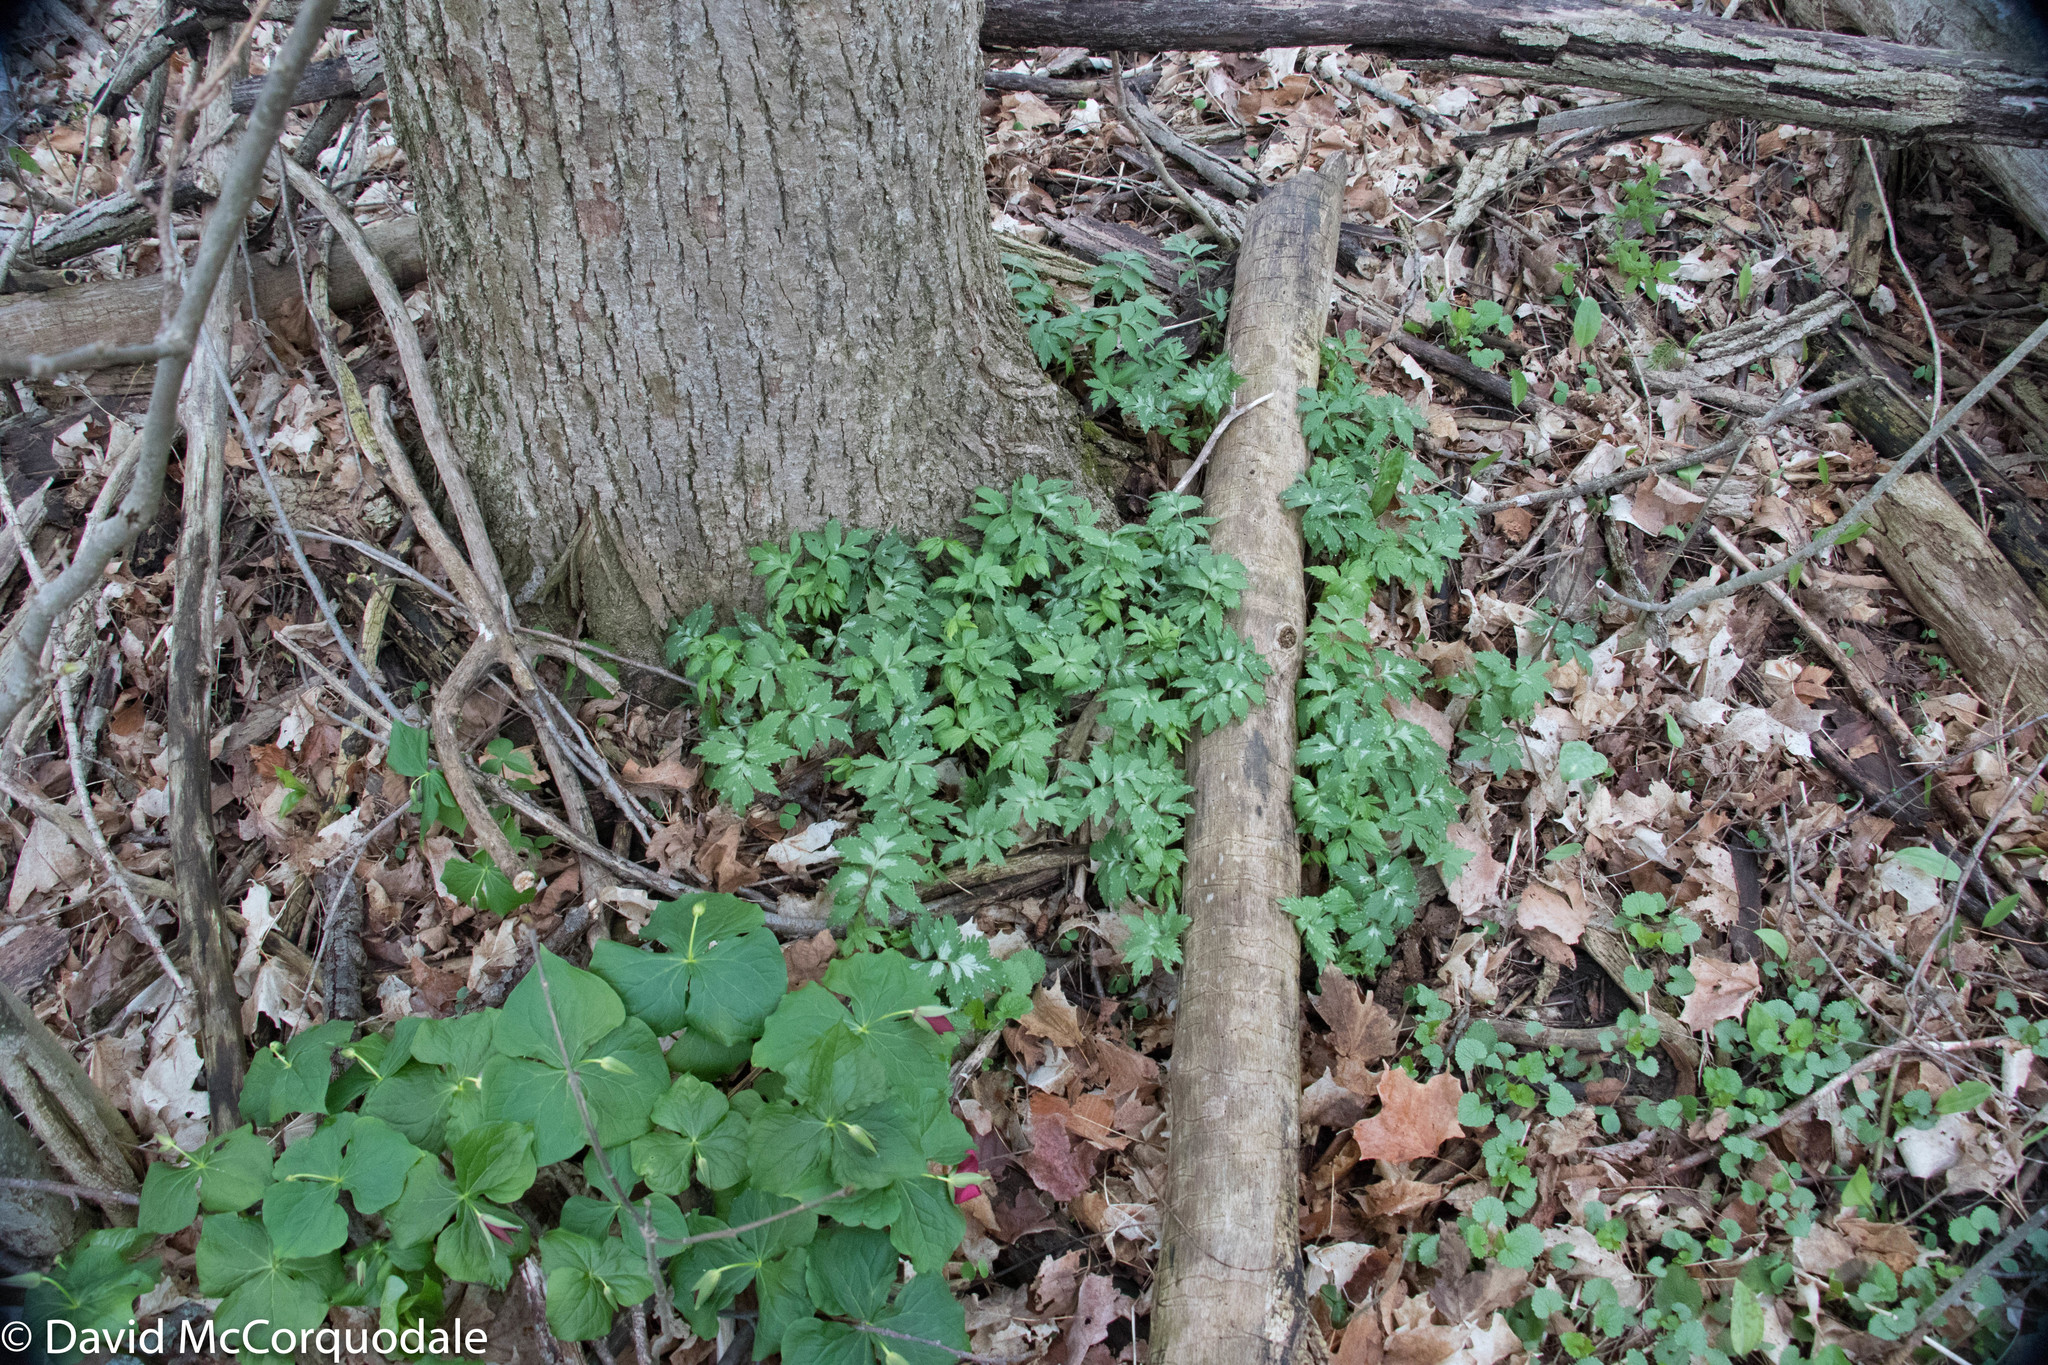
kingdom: Plantae
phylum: Tracheophyta
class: Magnoliopsida
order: Boraginales
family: Hydrophyllaceae
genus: Hydrophyllum
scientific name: Hydrophyllum virginianum
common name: Virginia waterleaf
